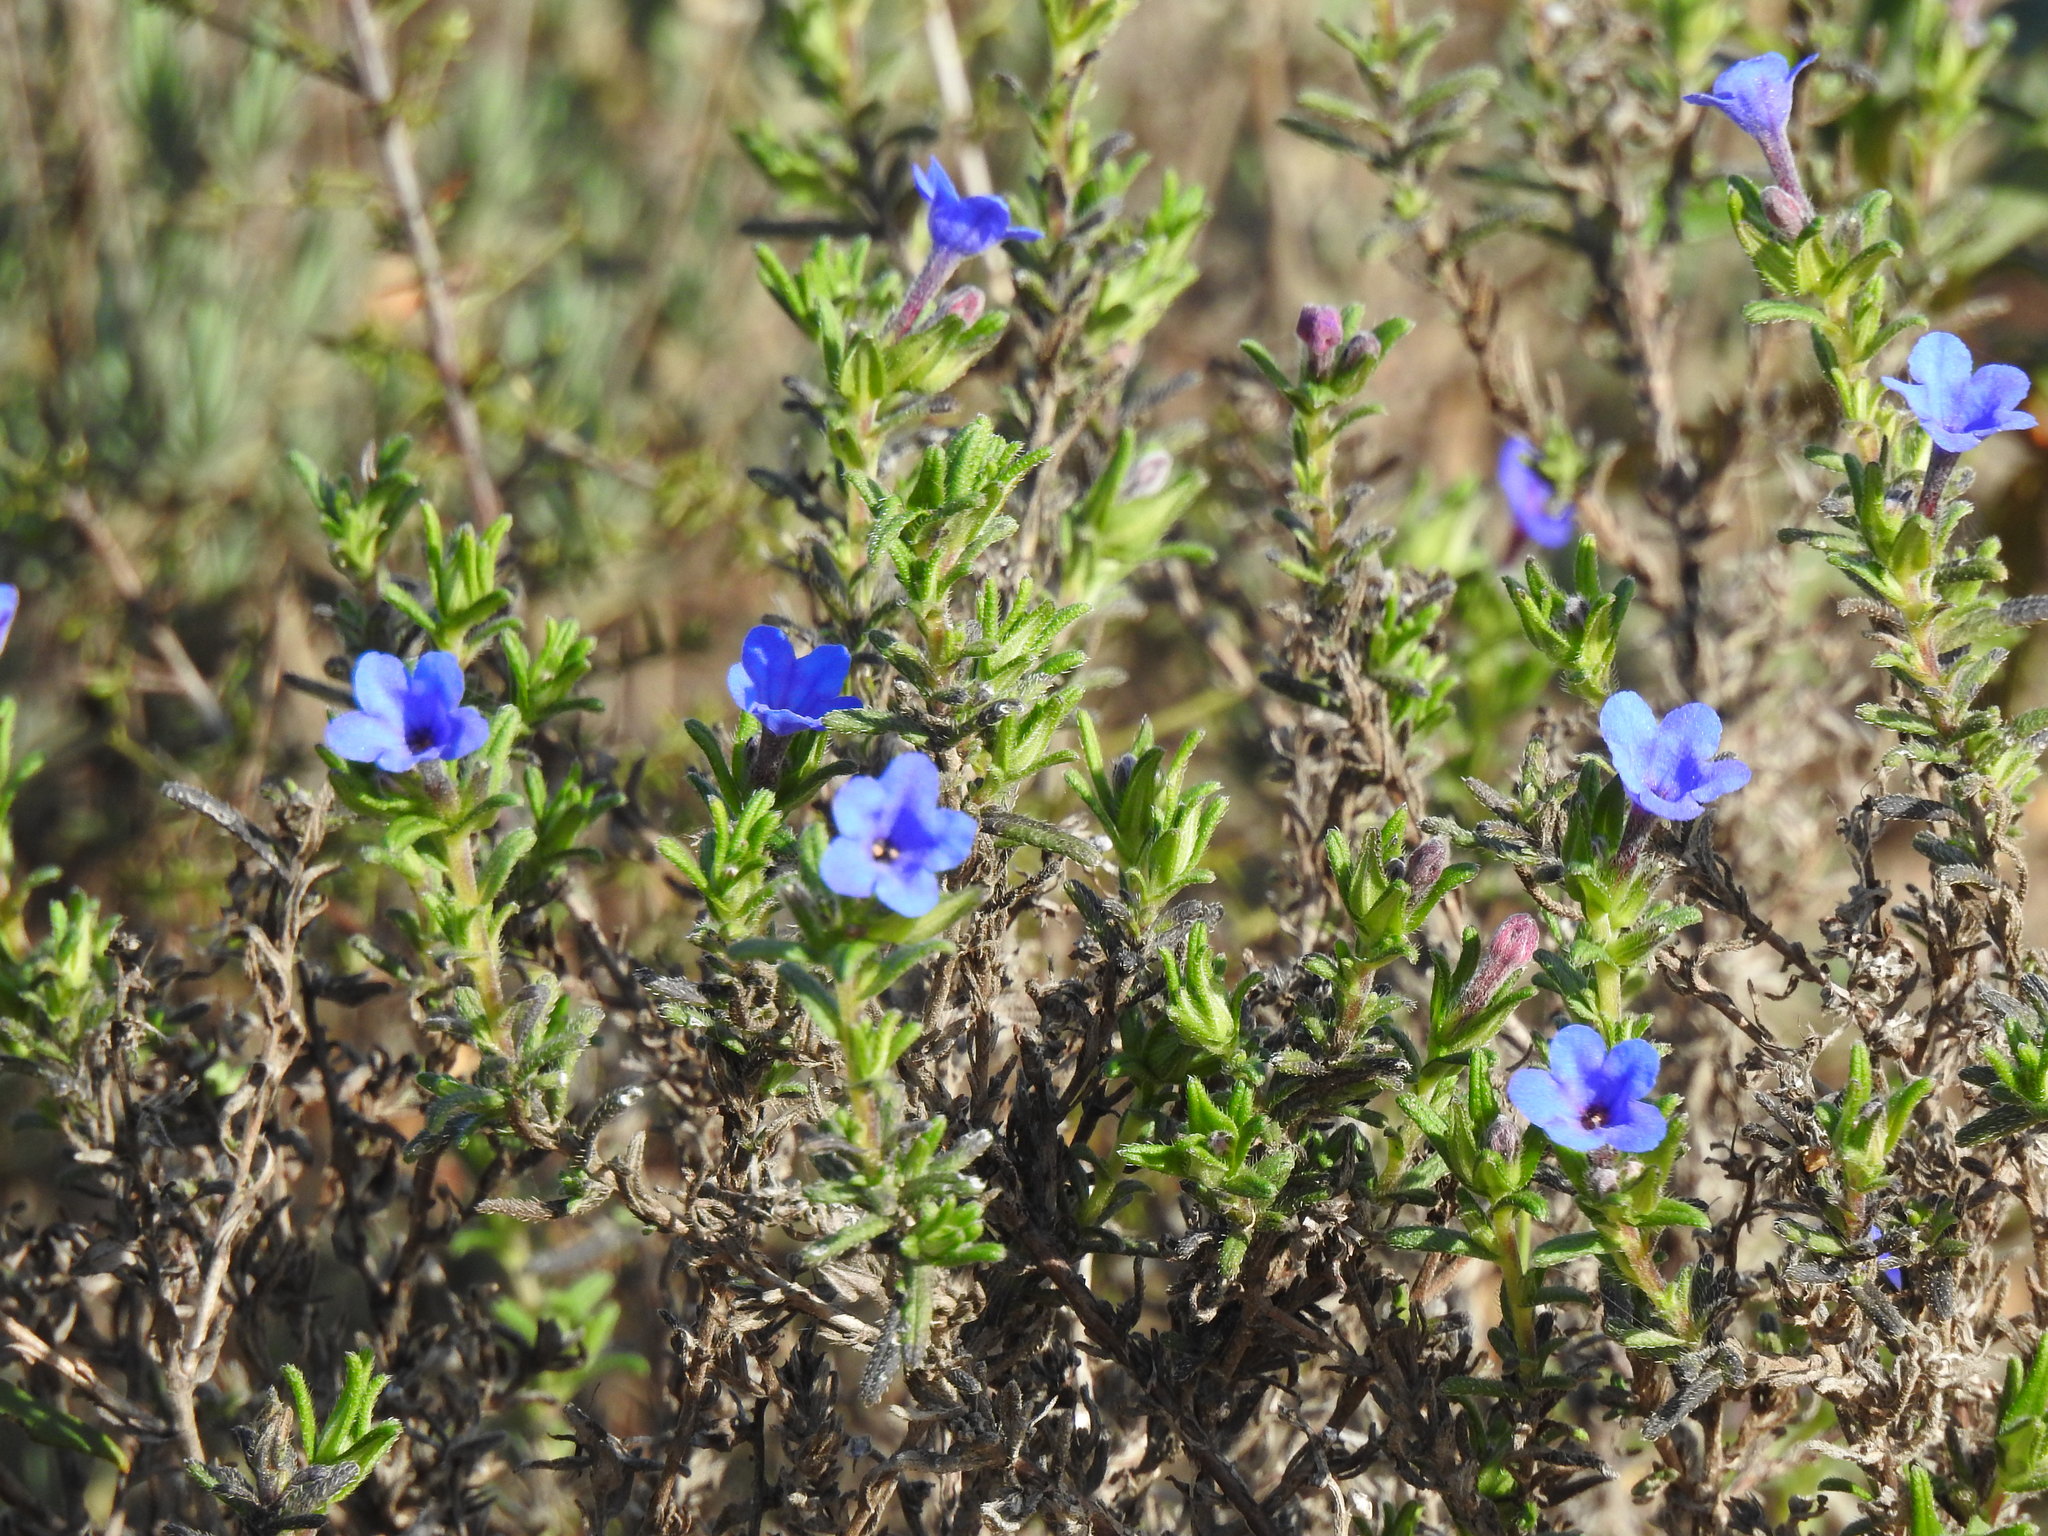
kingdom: Plantae
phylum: Tracheophyta
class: Magnoliopsida
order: Boraginales
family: Boraginaceae
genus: Glandora
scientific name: Glandora prostrata
